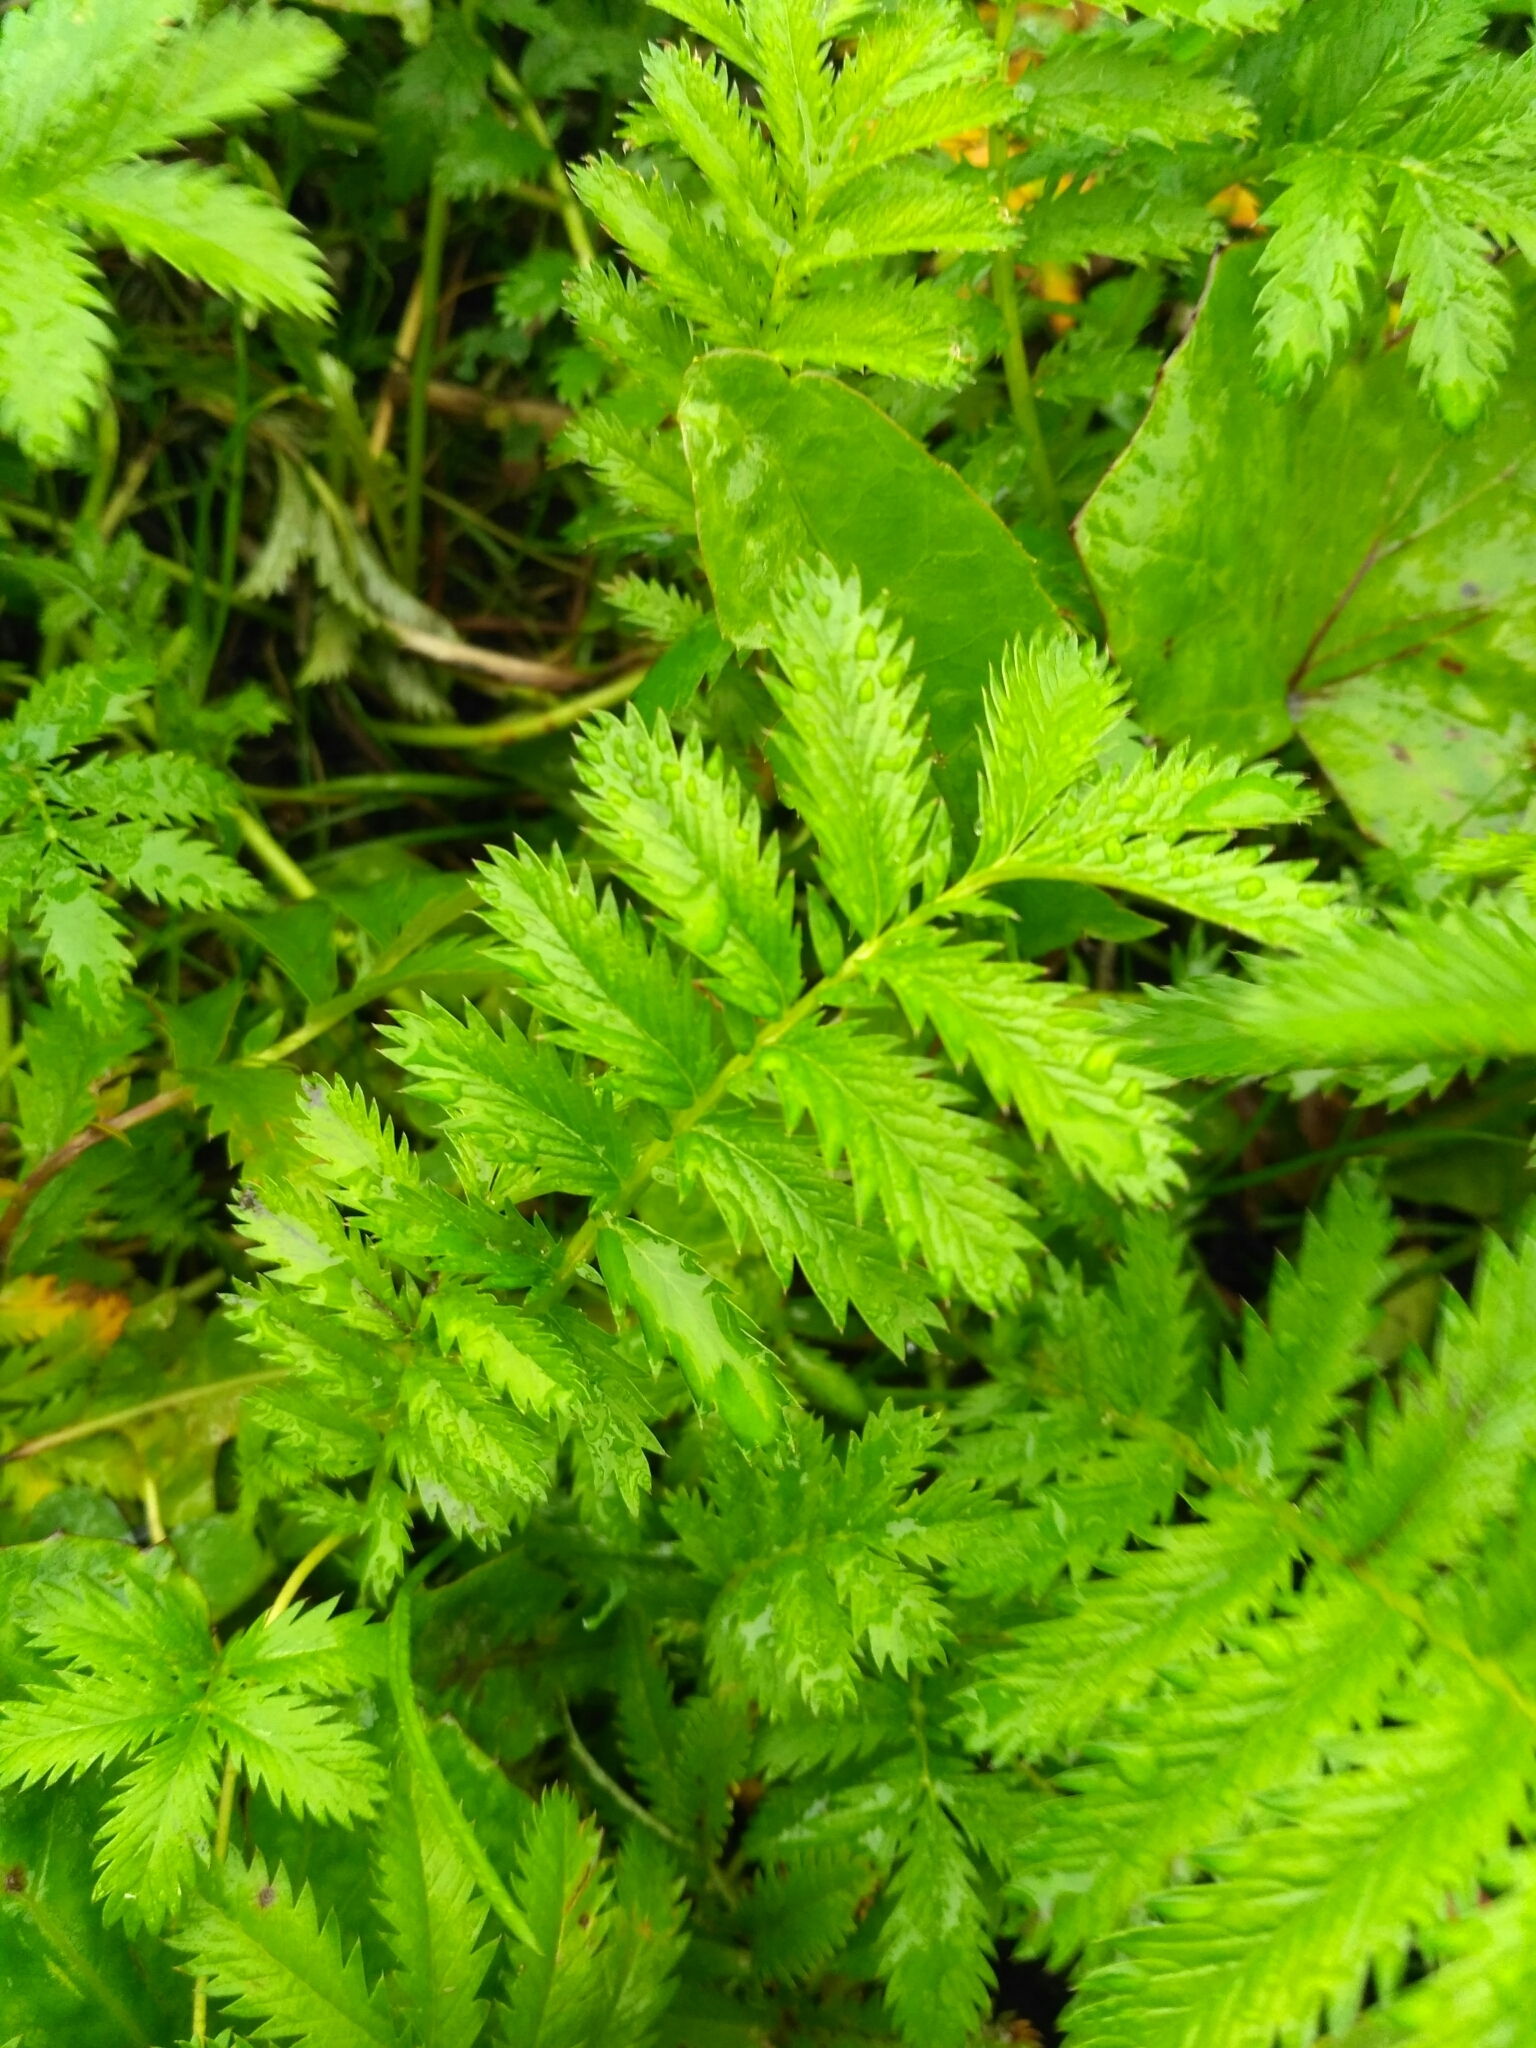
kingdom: Plantae
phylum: Tracheophyta
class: Magnoliopsida
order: Rosales
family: Rosaceae
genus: Argentina
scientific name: Argentina anserina
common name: Common silverweed
